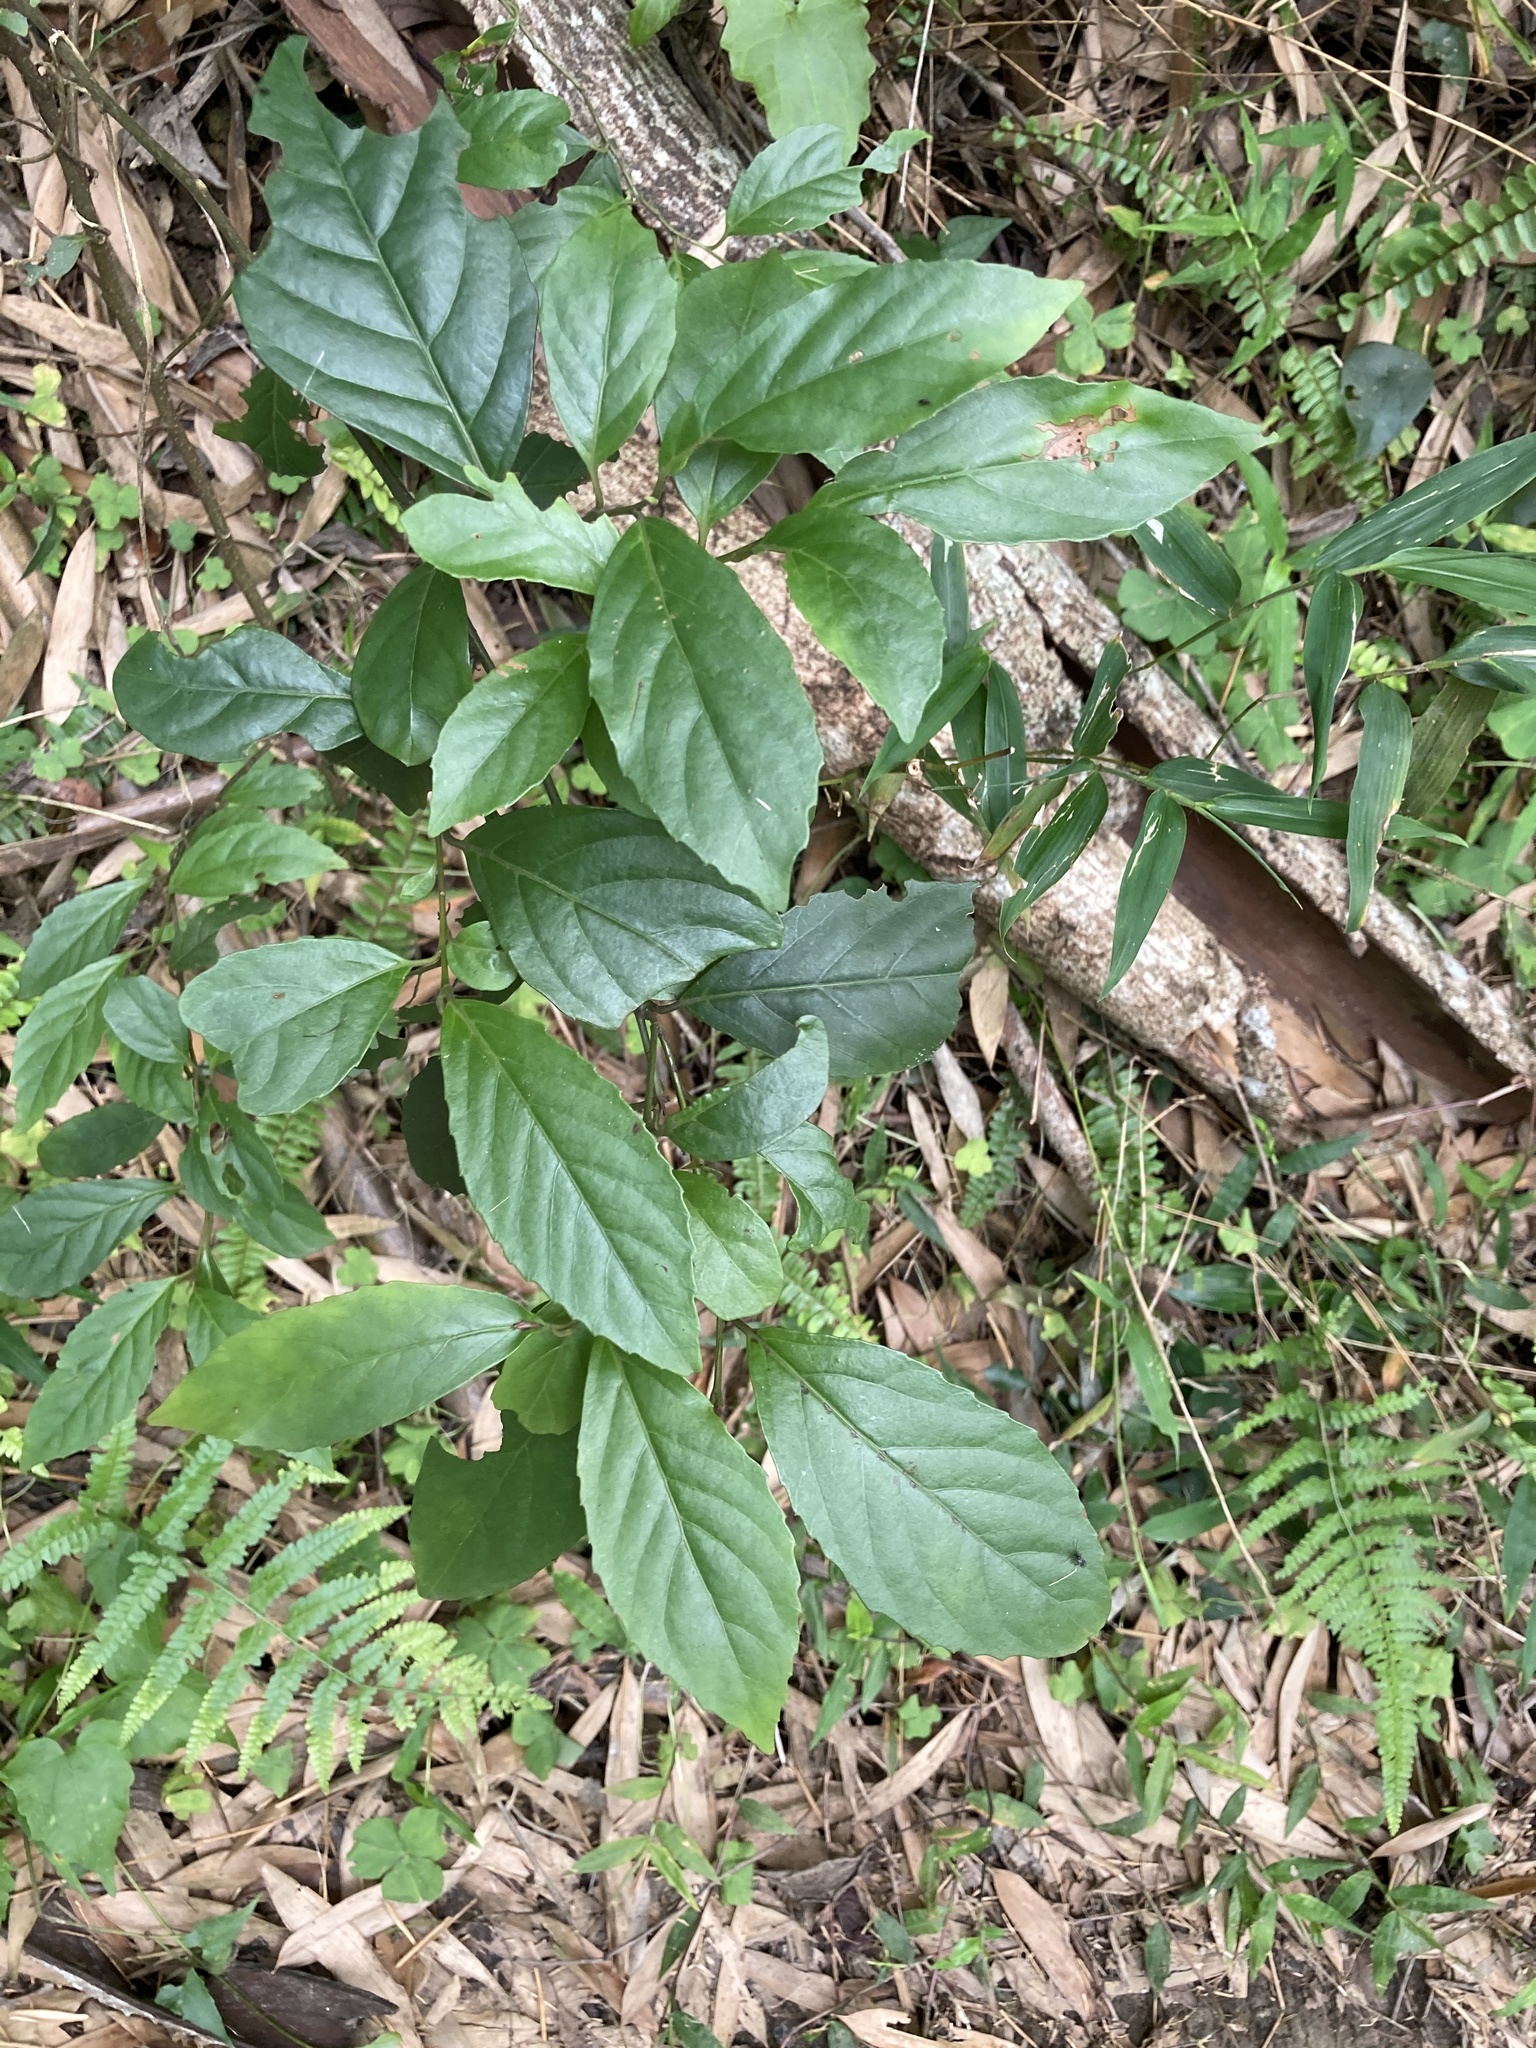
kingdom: Plantae
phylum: Tracheophyta
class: Magnoliopsida
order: Ericales
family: Primulaceae
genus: Maesa
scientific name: Maesa perlaria
